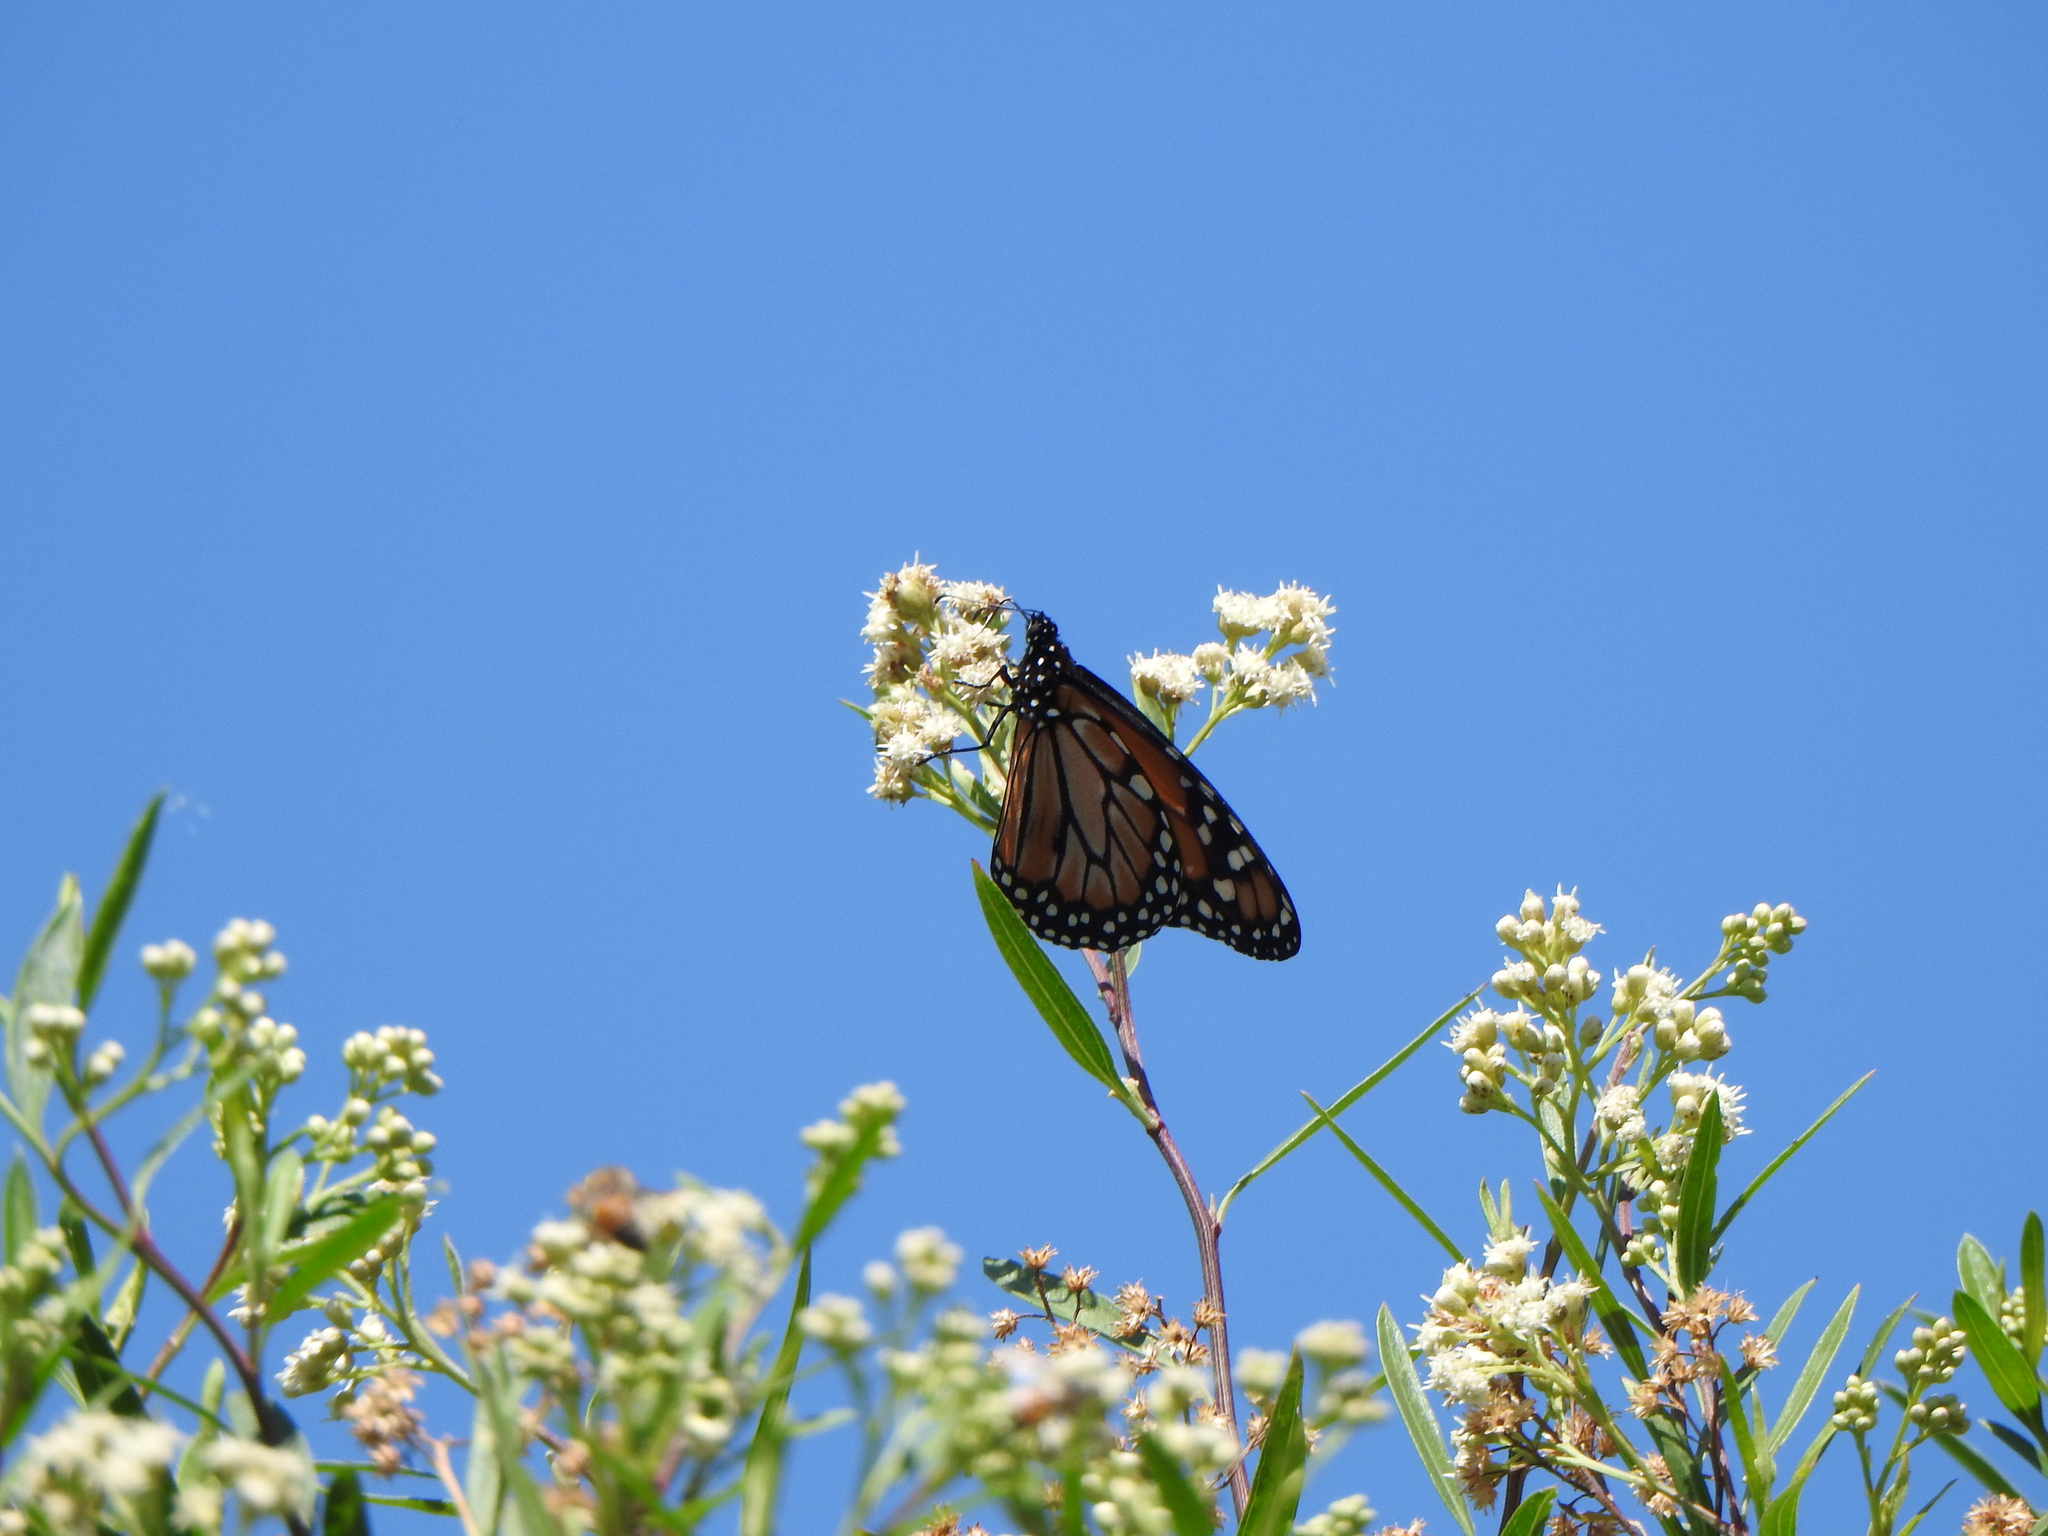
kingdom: Animalia
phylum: Arthropoda
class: Insecta
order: Lepidoptera
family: Nymphalidae
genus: Danaus
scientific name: Danaus erippus
